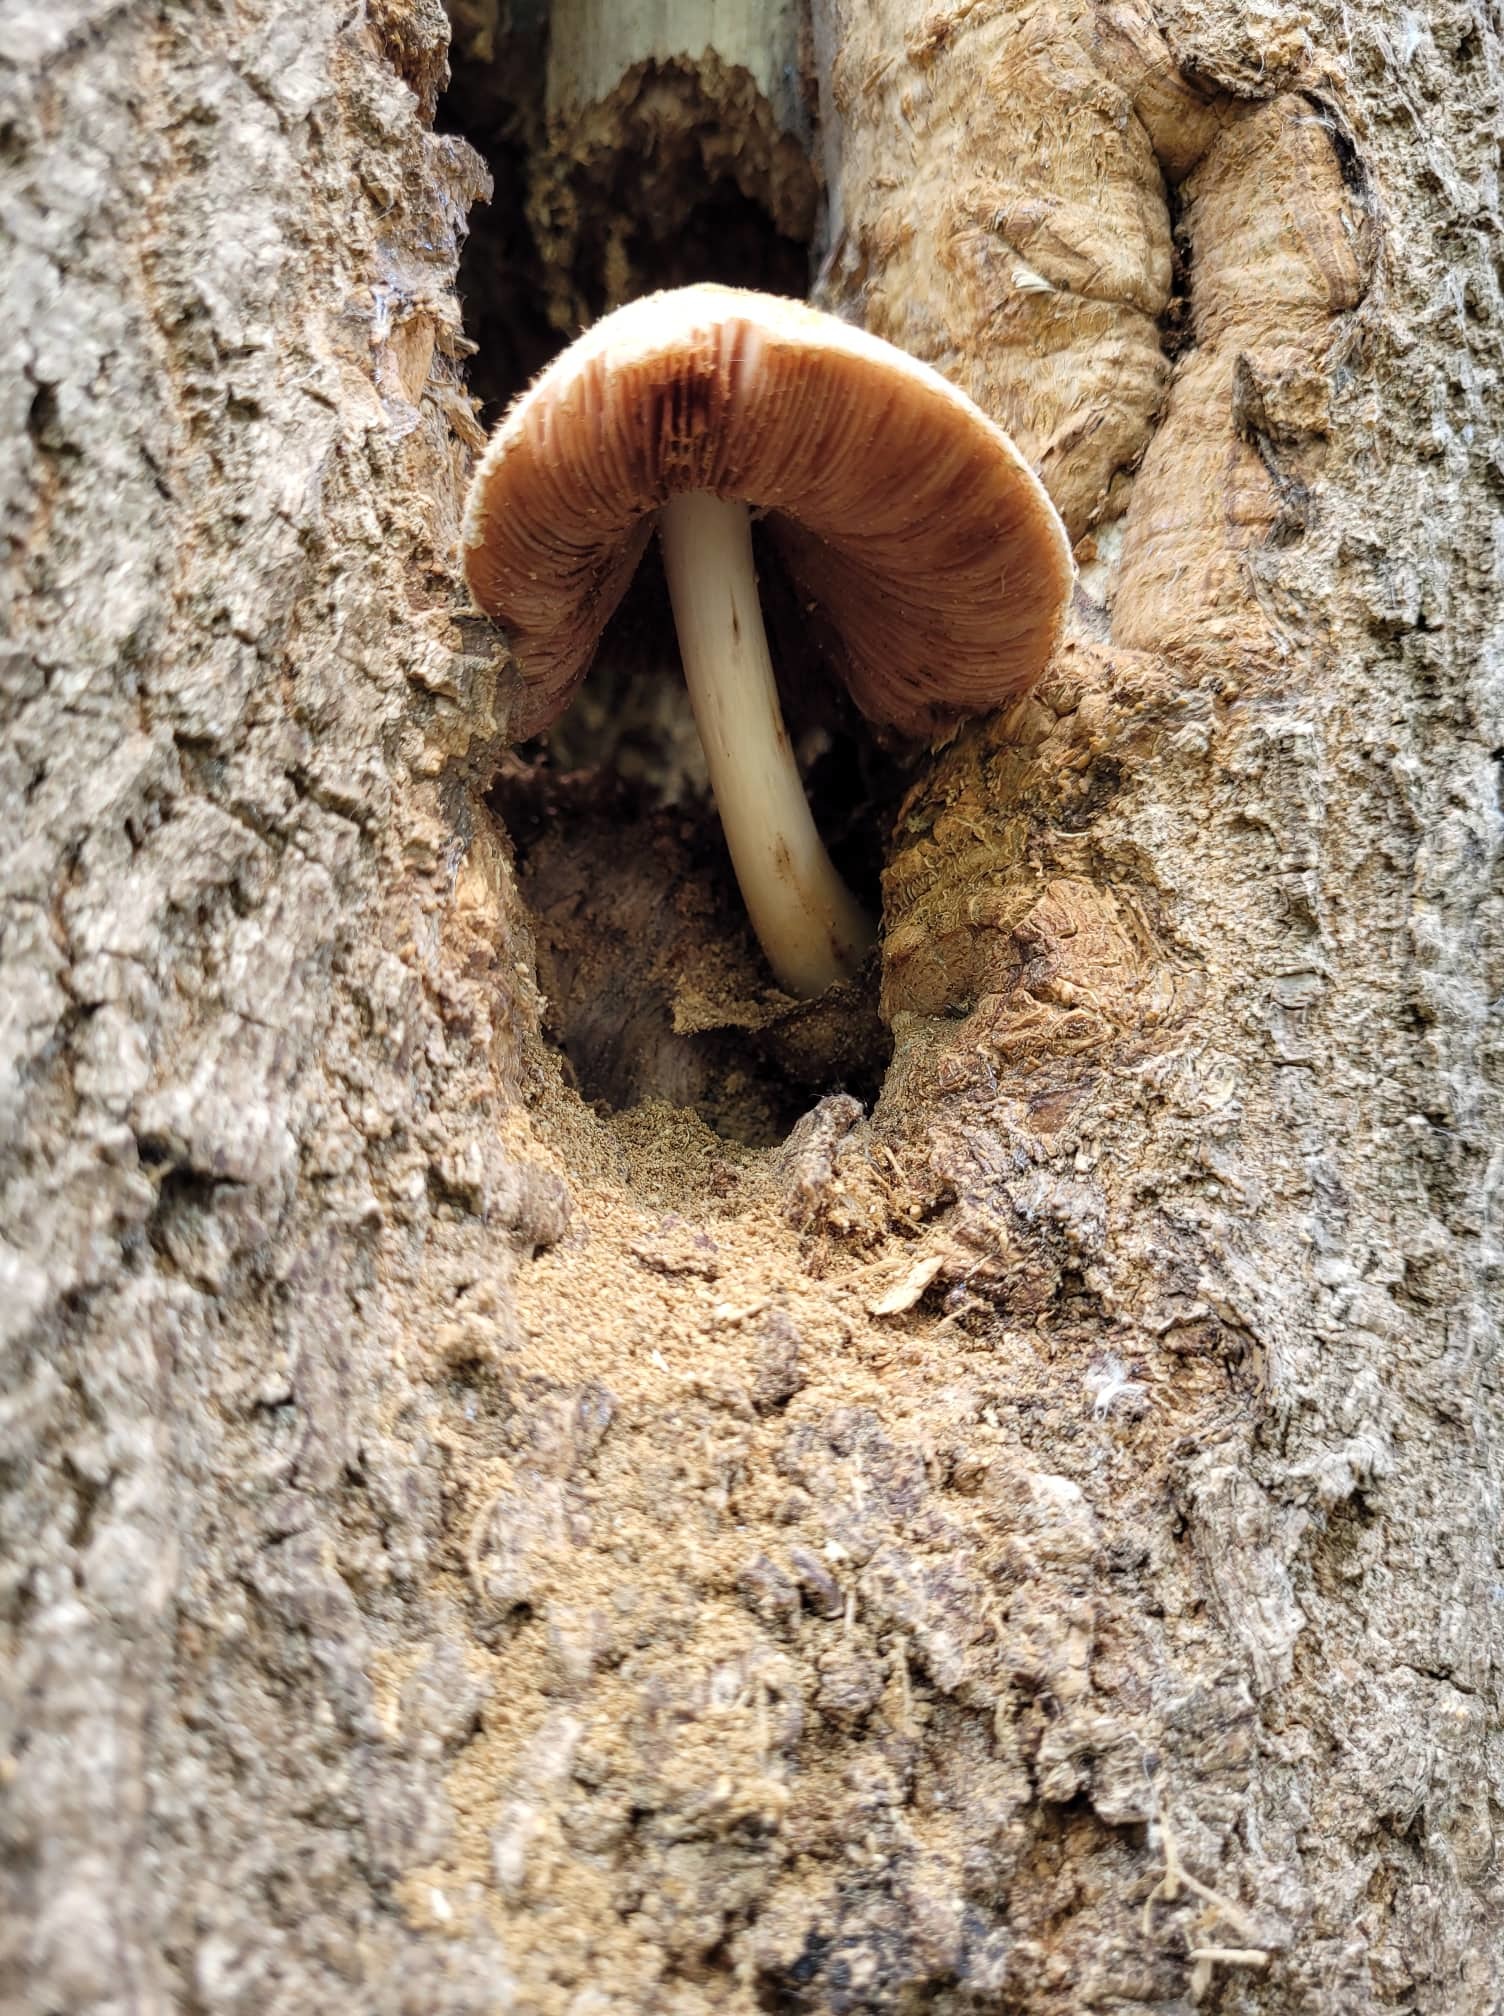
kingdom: Fungi
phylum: Basidiomycota
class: Agaricomycetes
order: Agaricales
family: Pluteaceae
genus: Volvariella
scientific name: Volvariella bombycina
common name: Silky rosegill
